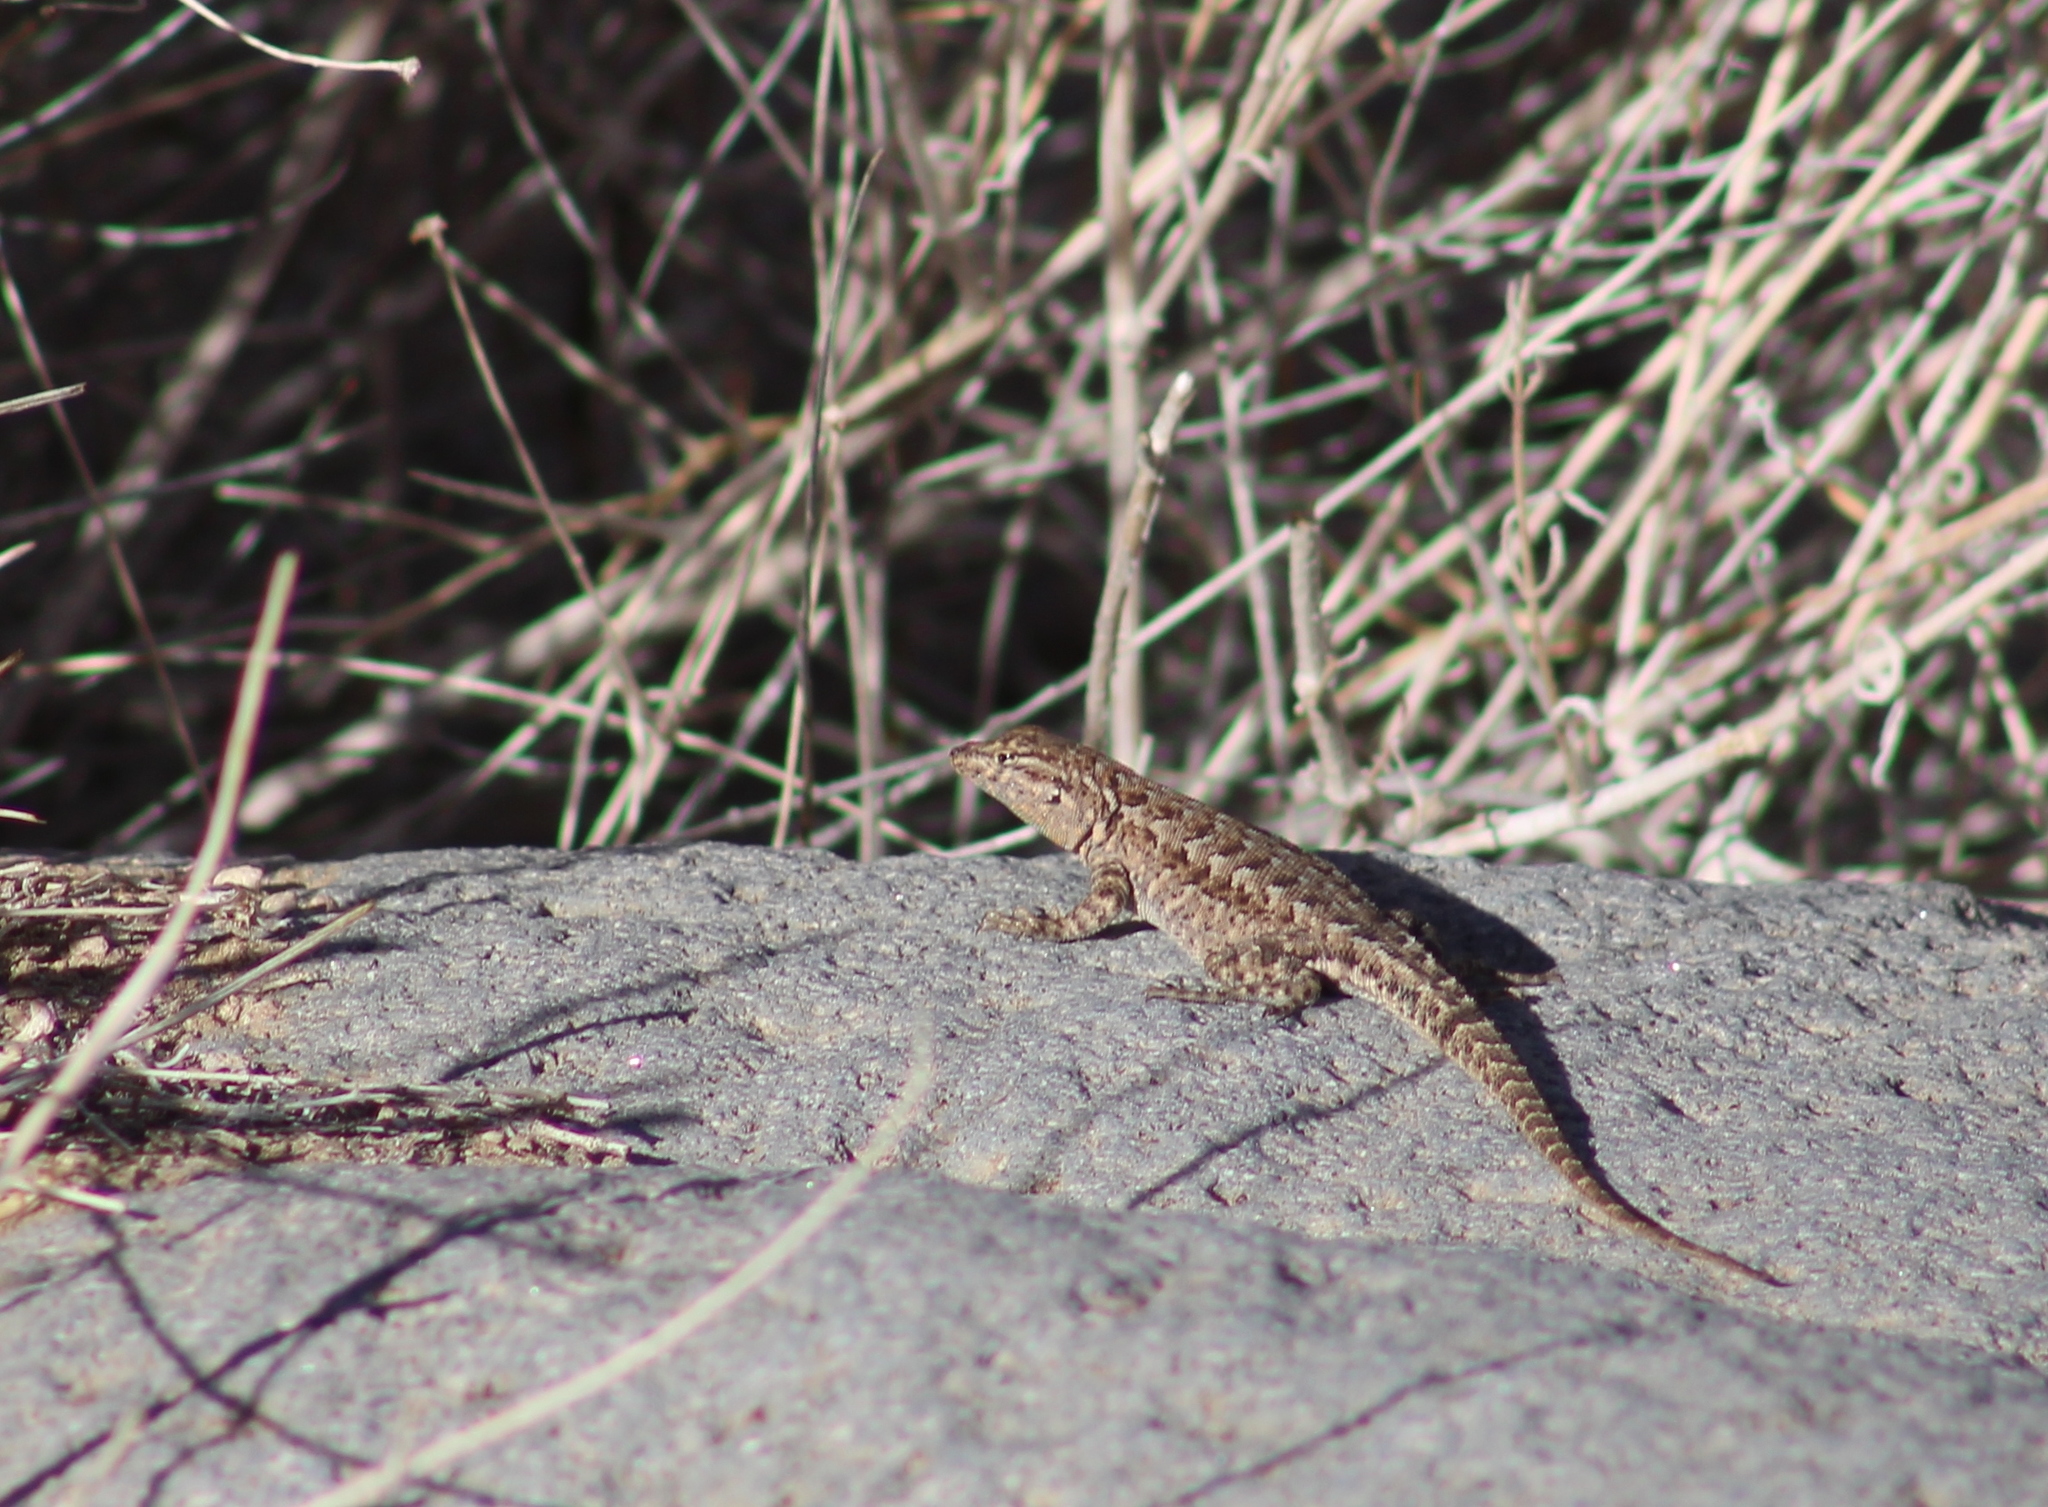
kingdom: Animalia
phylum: Chordata
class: Squamata
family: Phrynosomatidae
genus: Uta
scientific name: Uta stansburiana
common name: Side-blotched lizard
